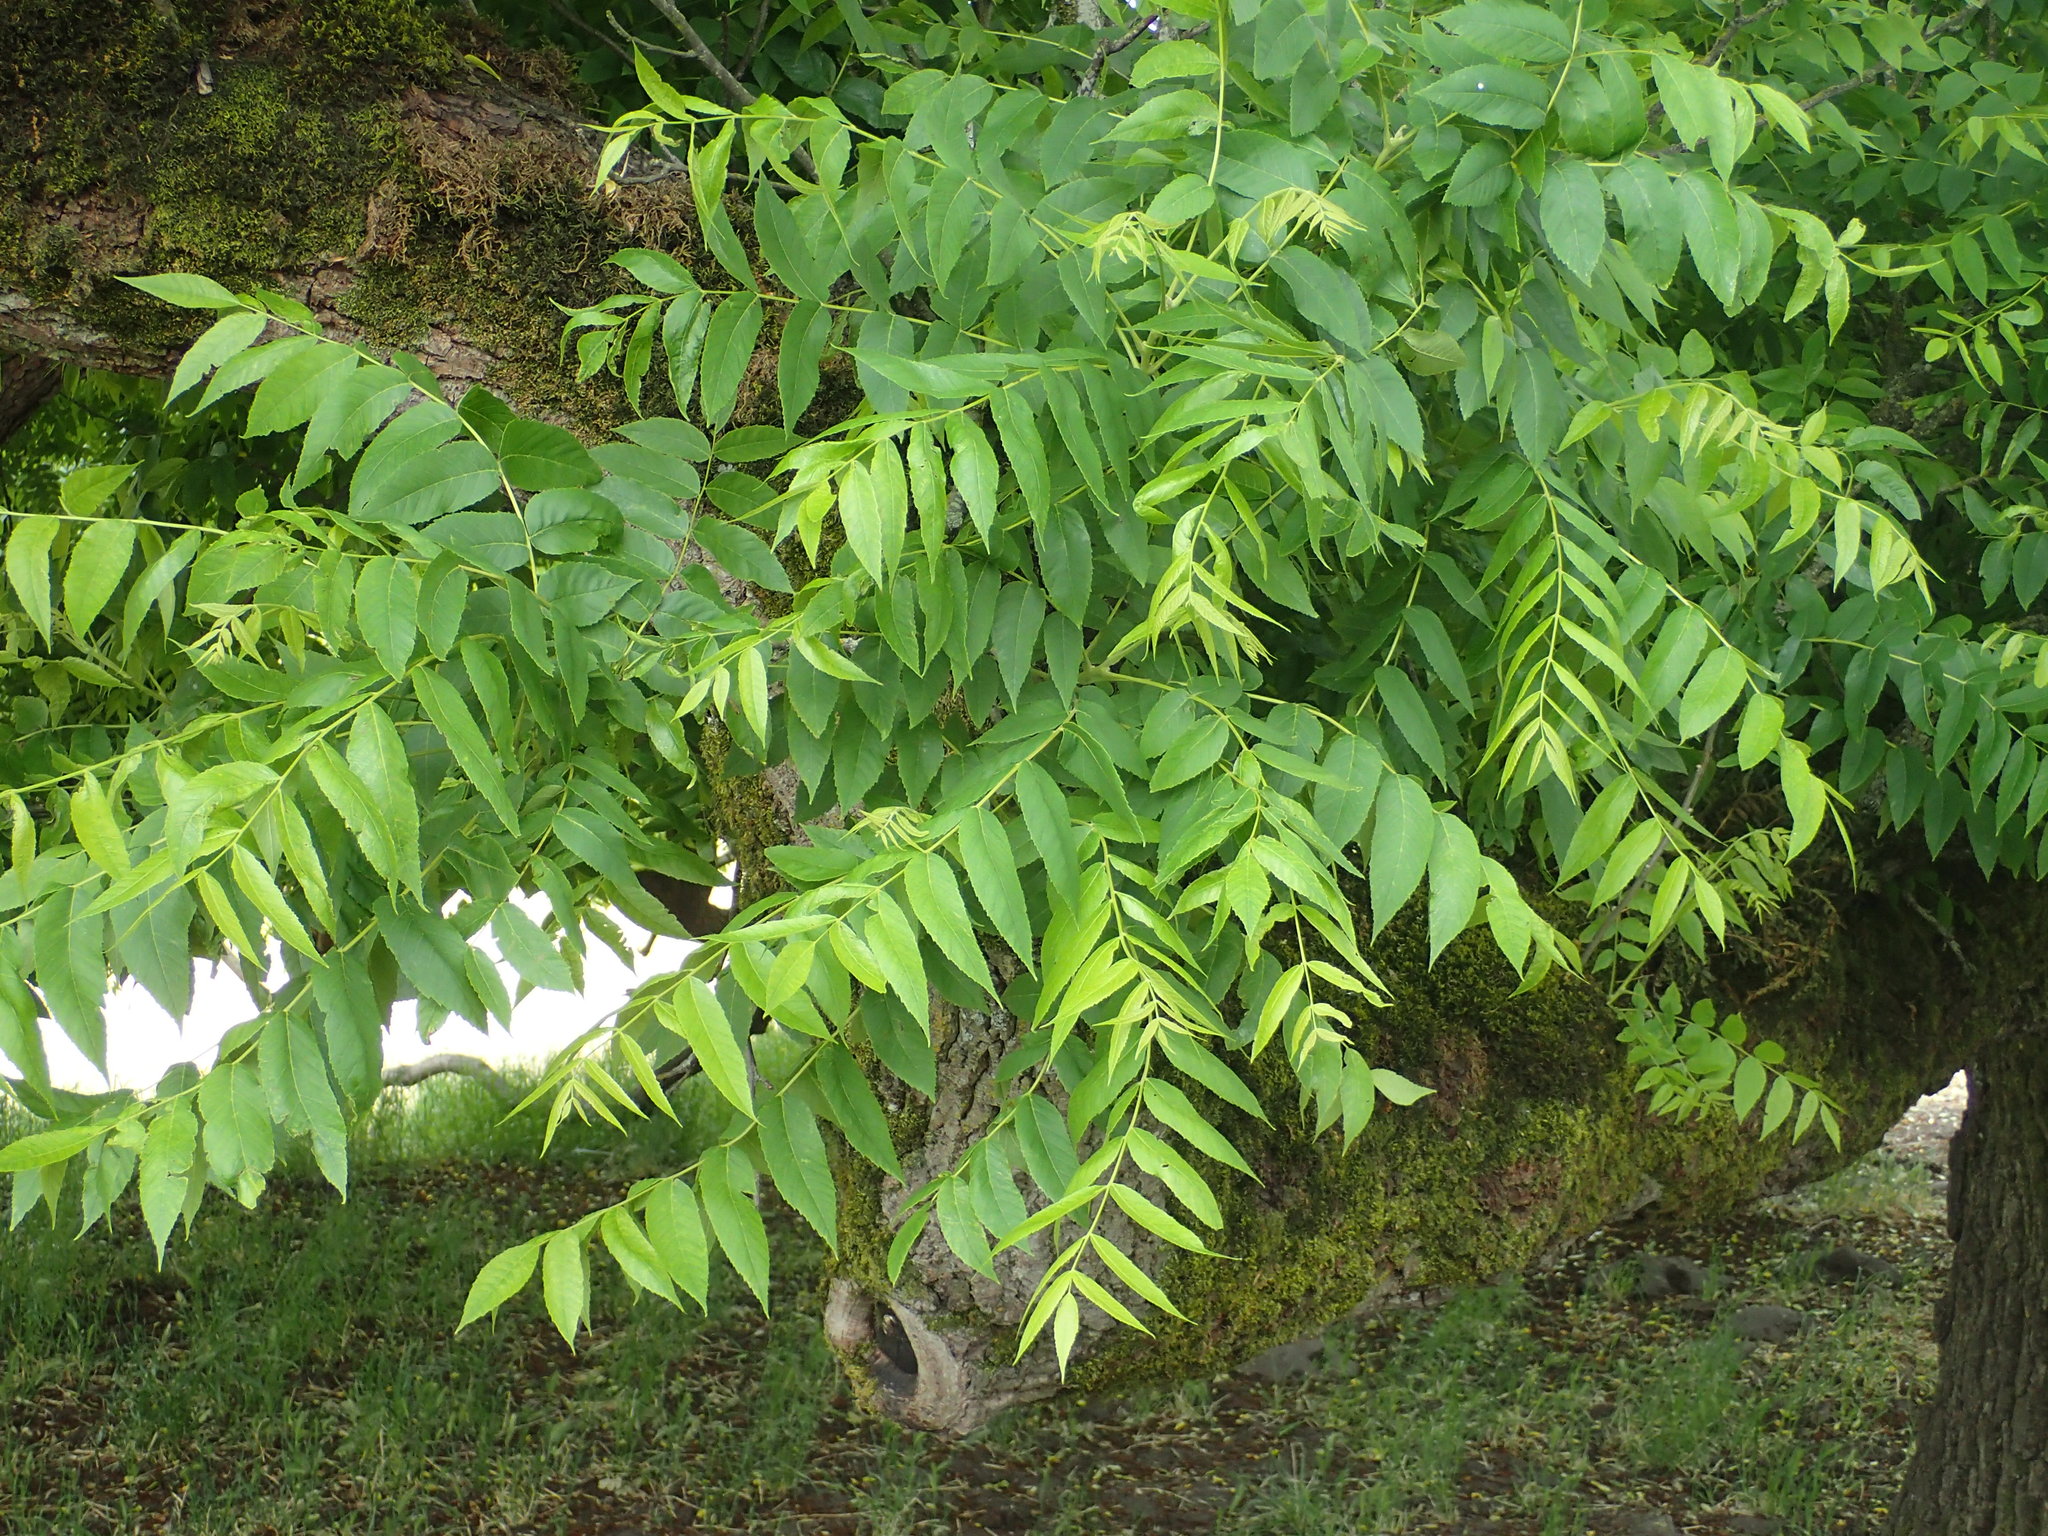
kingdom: Plantae
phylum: Tracheophyta
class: Magnoliopsida
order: Fagales
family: Juglandaceae
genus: Juglans
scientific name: Juglans nigra
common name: Black walnut
